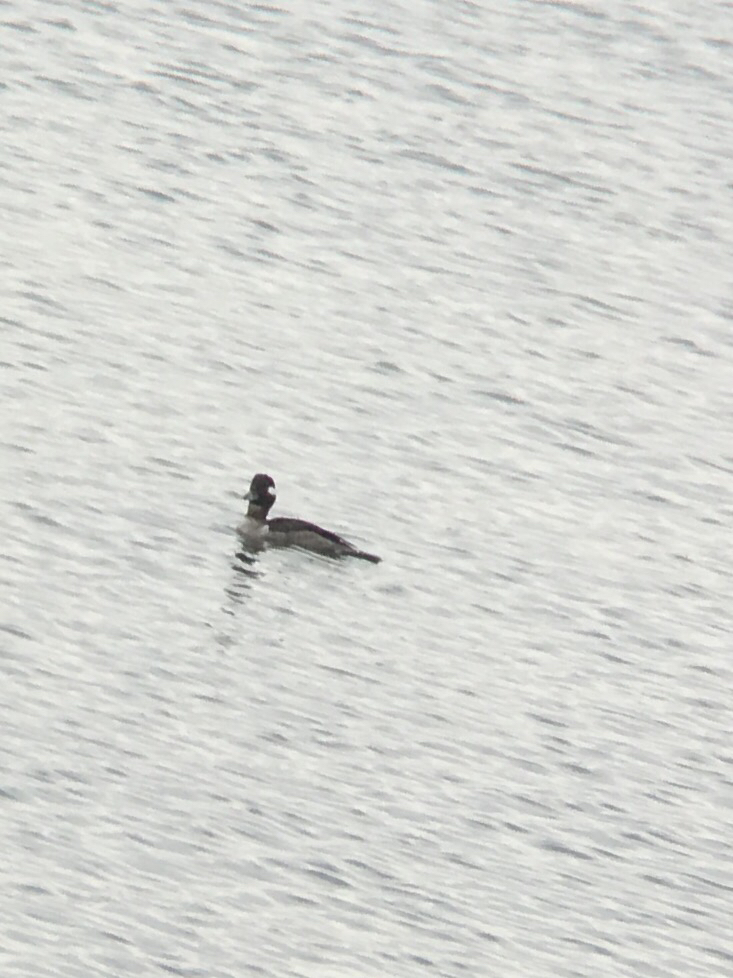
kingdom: Animalia
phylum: Chordata
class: Aves
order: Anseriformes
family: Anatidae
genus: Bucephala
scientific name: Bucephala albeola
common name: Bufflehead
